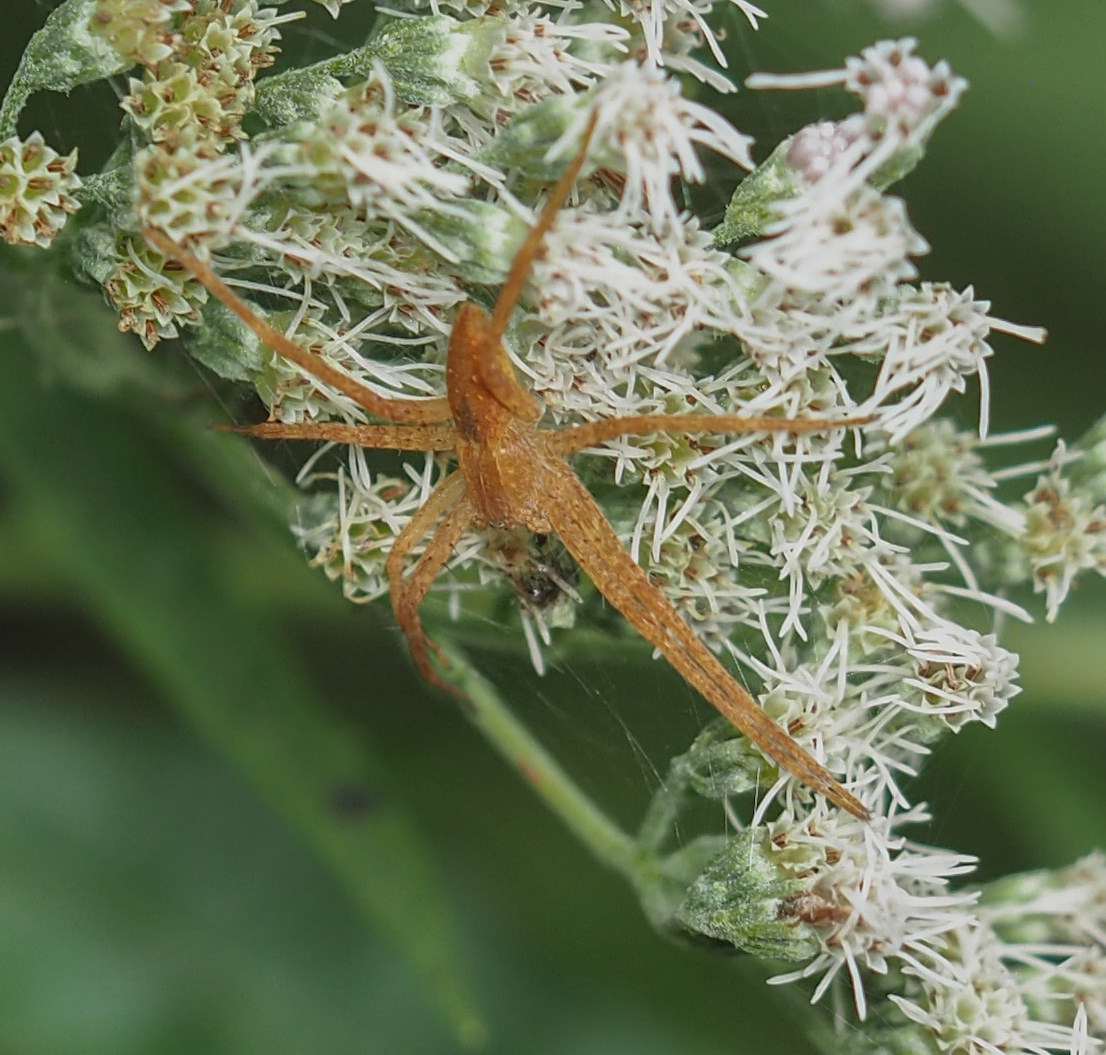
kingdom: Animalia
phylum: Arthropoda
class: Arachnida
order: Araneae
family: Pisauridae
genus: Pisaurina
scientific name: Pisaurina mira
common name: American nursery web spider
